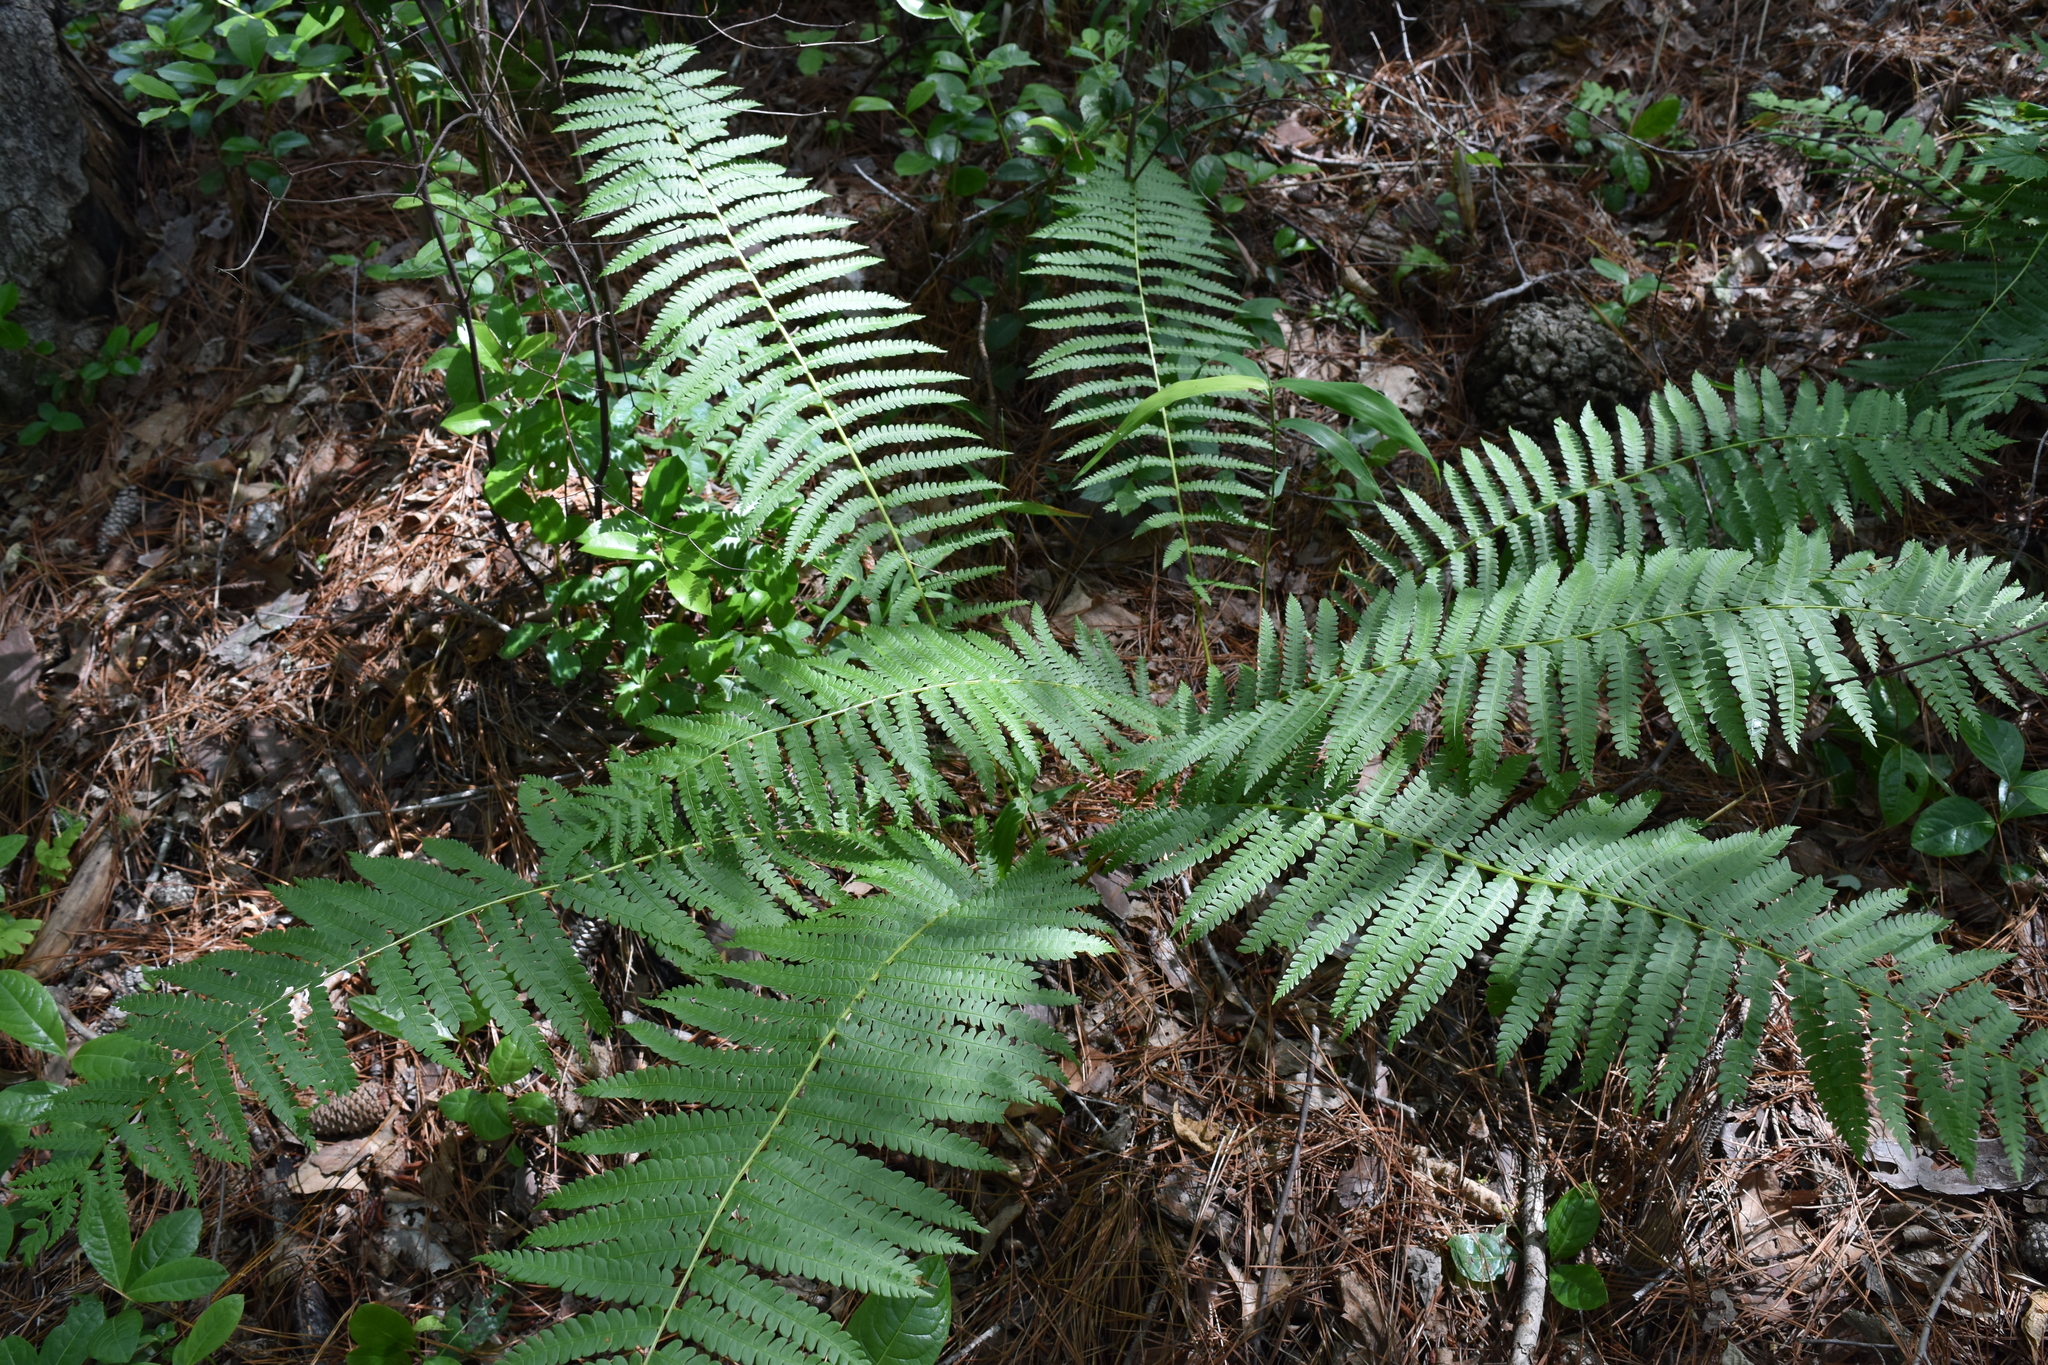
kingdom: Plantae
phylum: Tracheophyta
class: Polypodiopsida
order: Osmundales
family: Osmundaceae
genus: Osmundastrum
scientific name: Osmundastrum cinnamomeum
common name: Cinnamon fern
